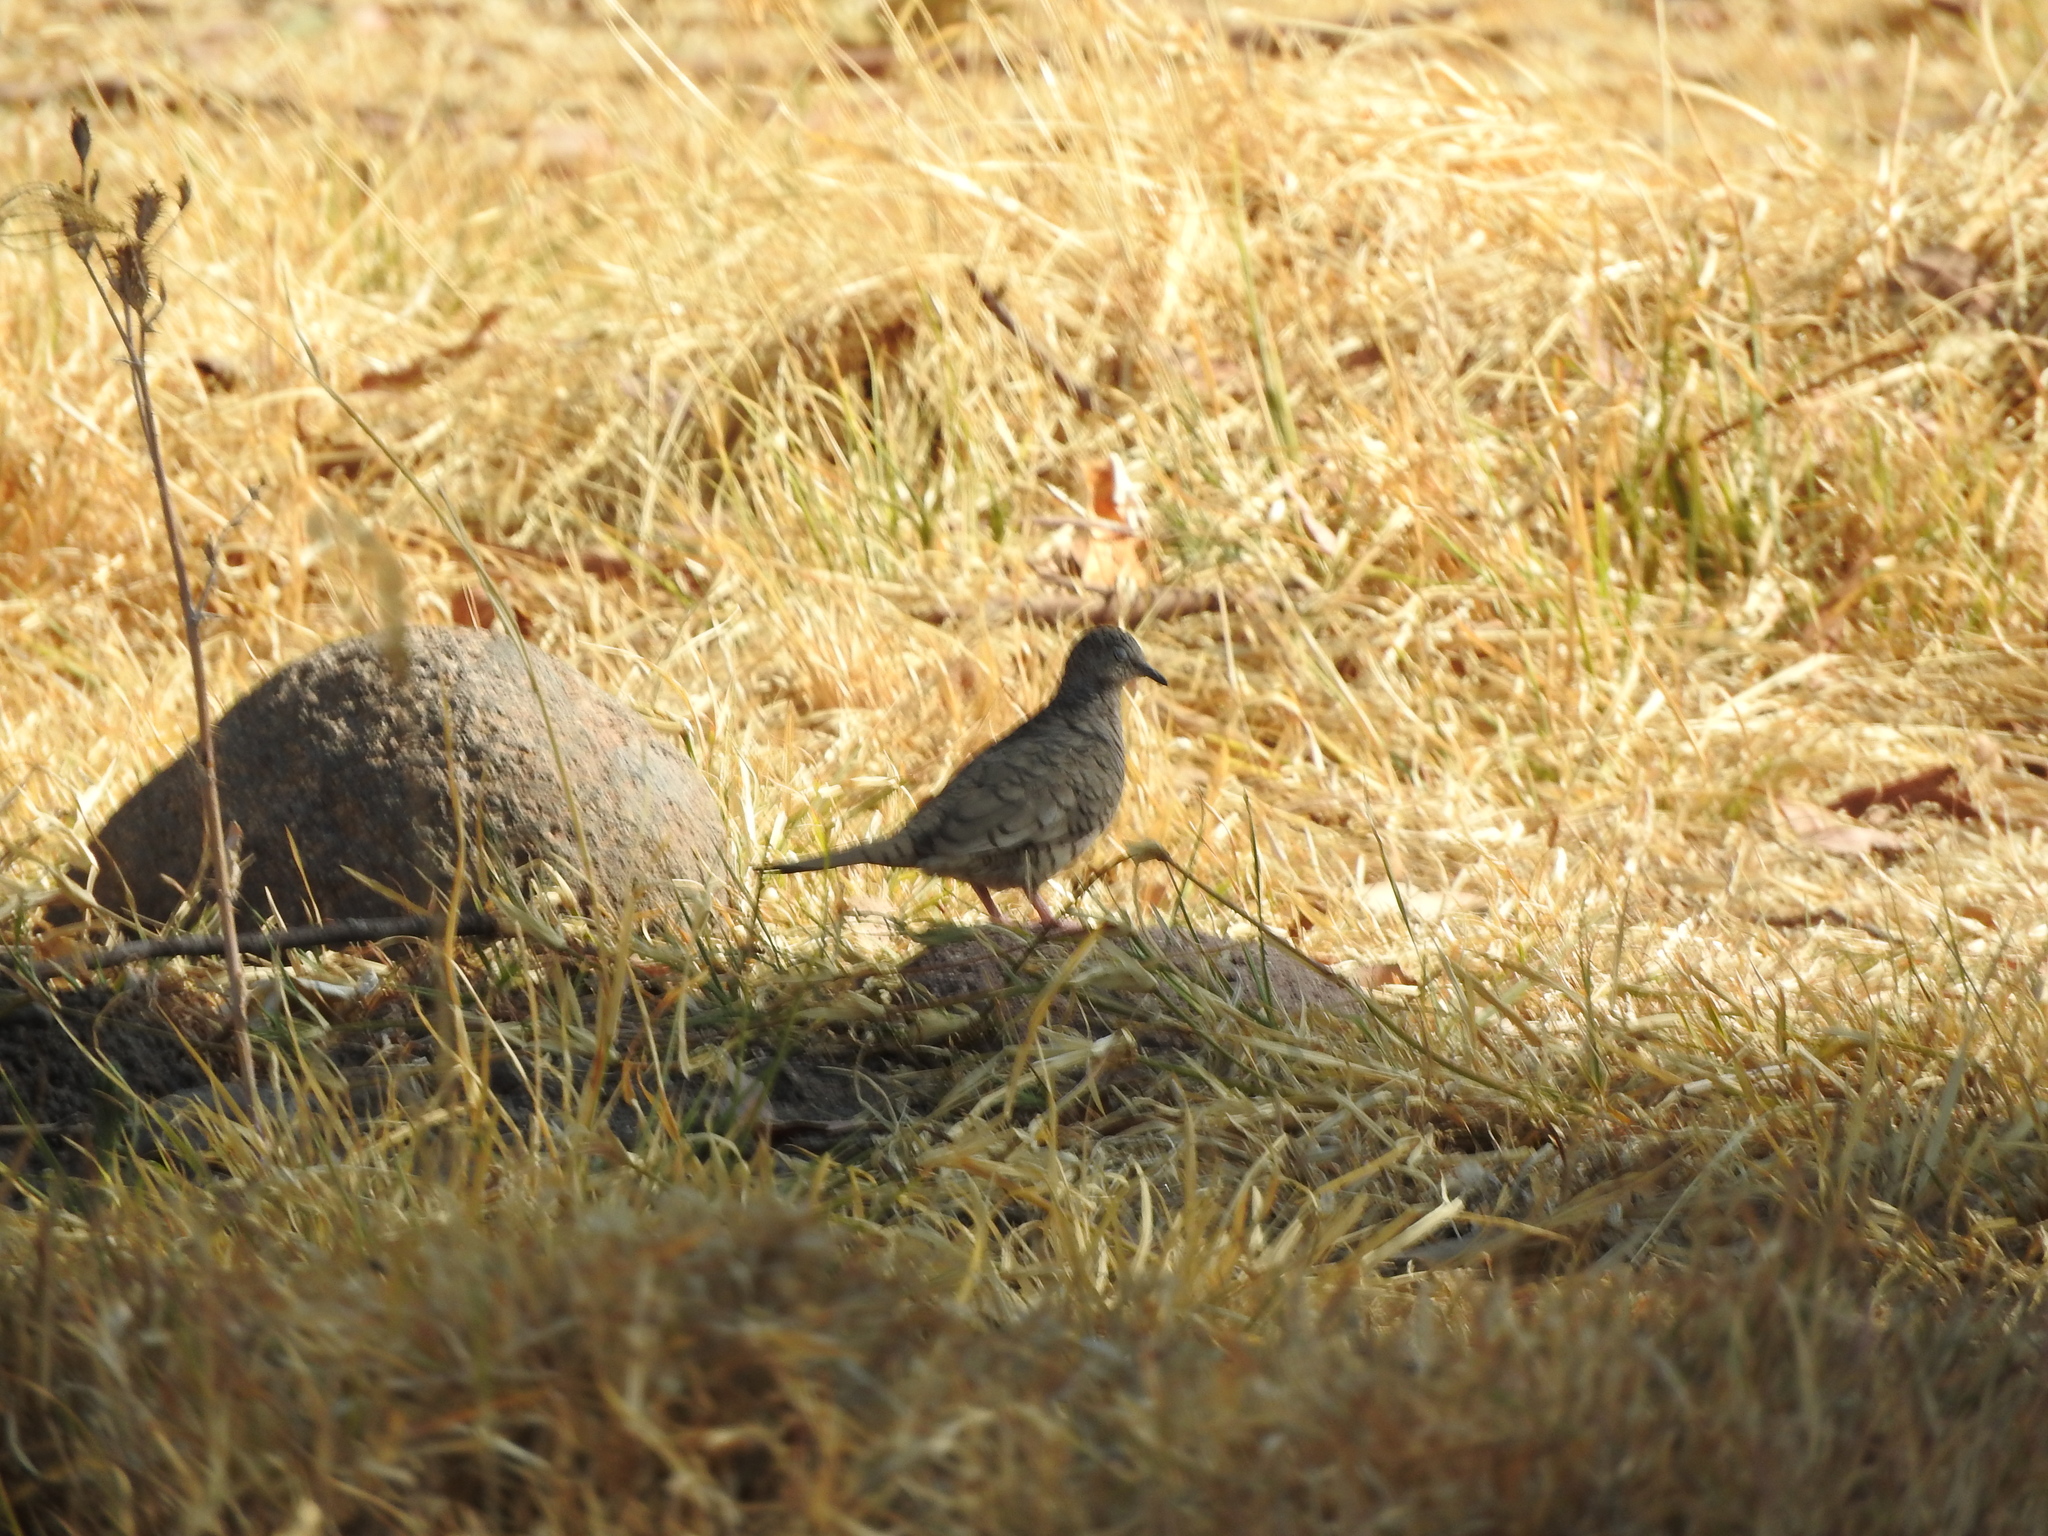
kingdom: Animalia
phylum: Chordata
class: Aves
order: Columbiformes
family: Columbidae
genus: Columbina
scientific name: Columbina inca
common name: Inca dove
